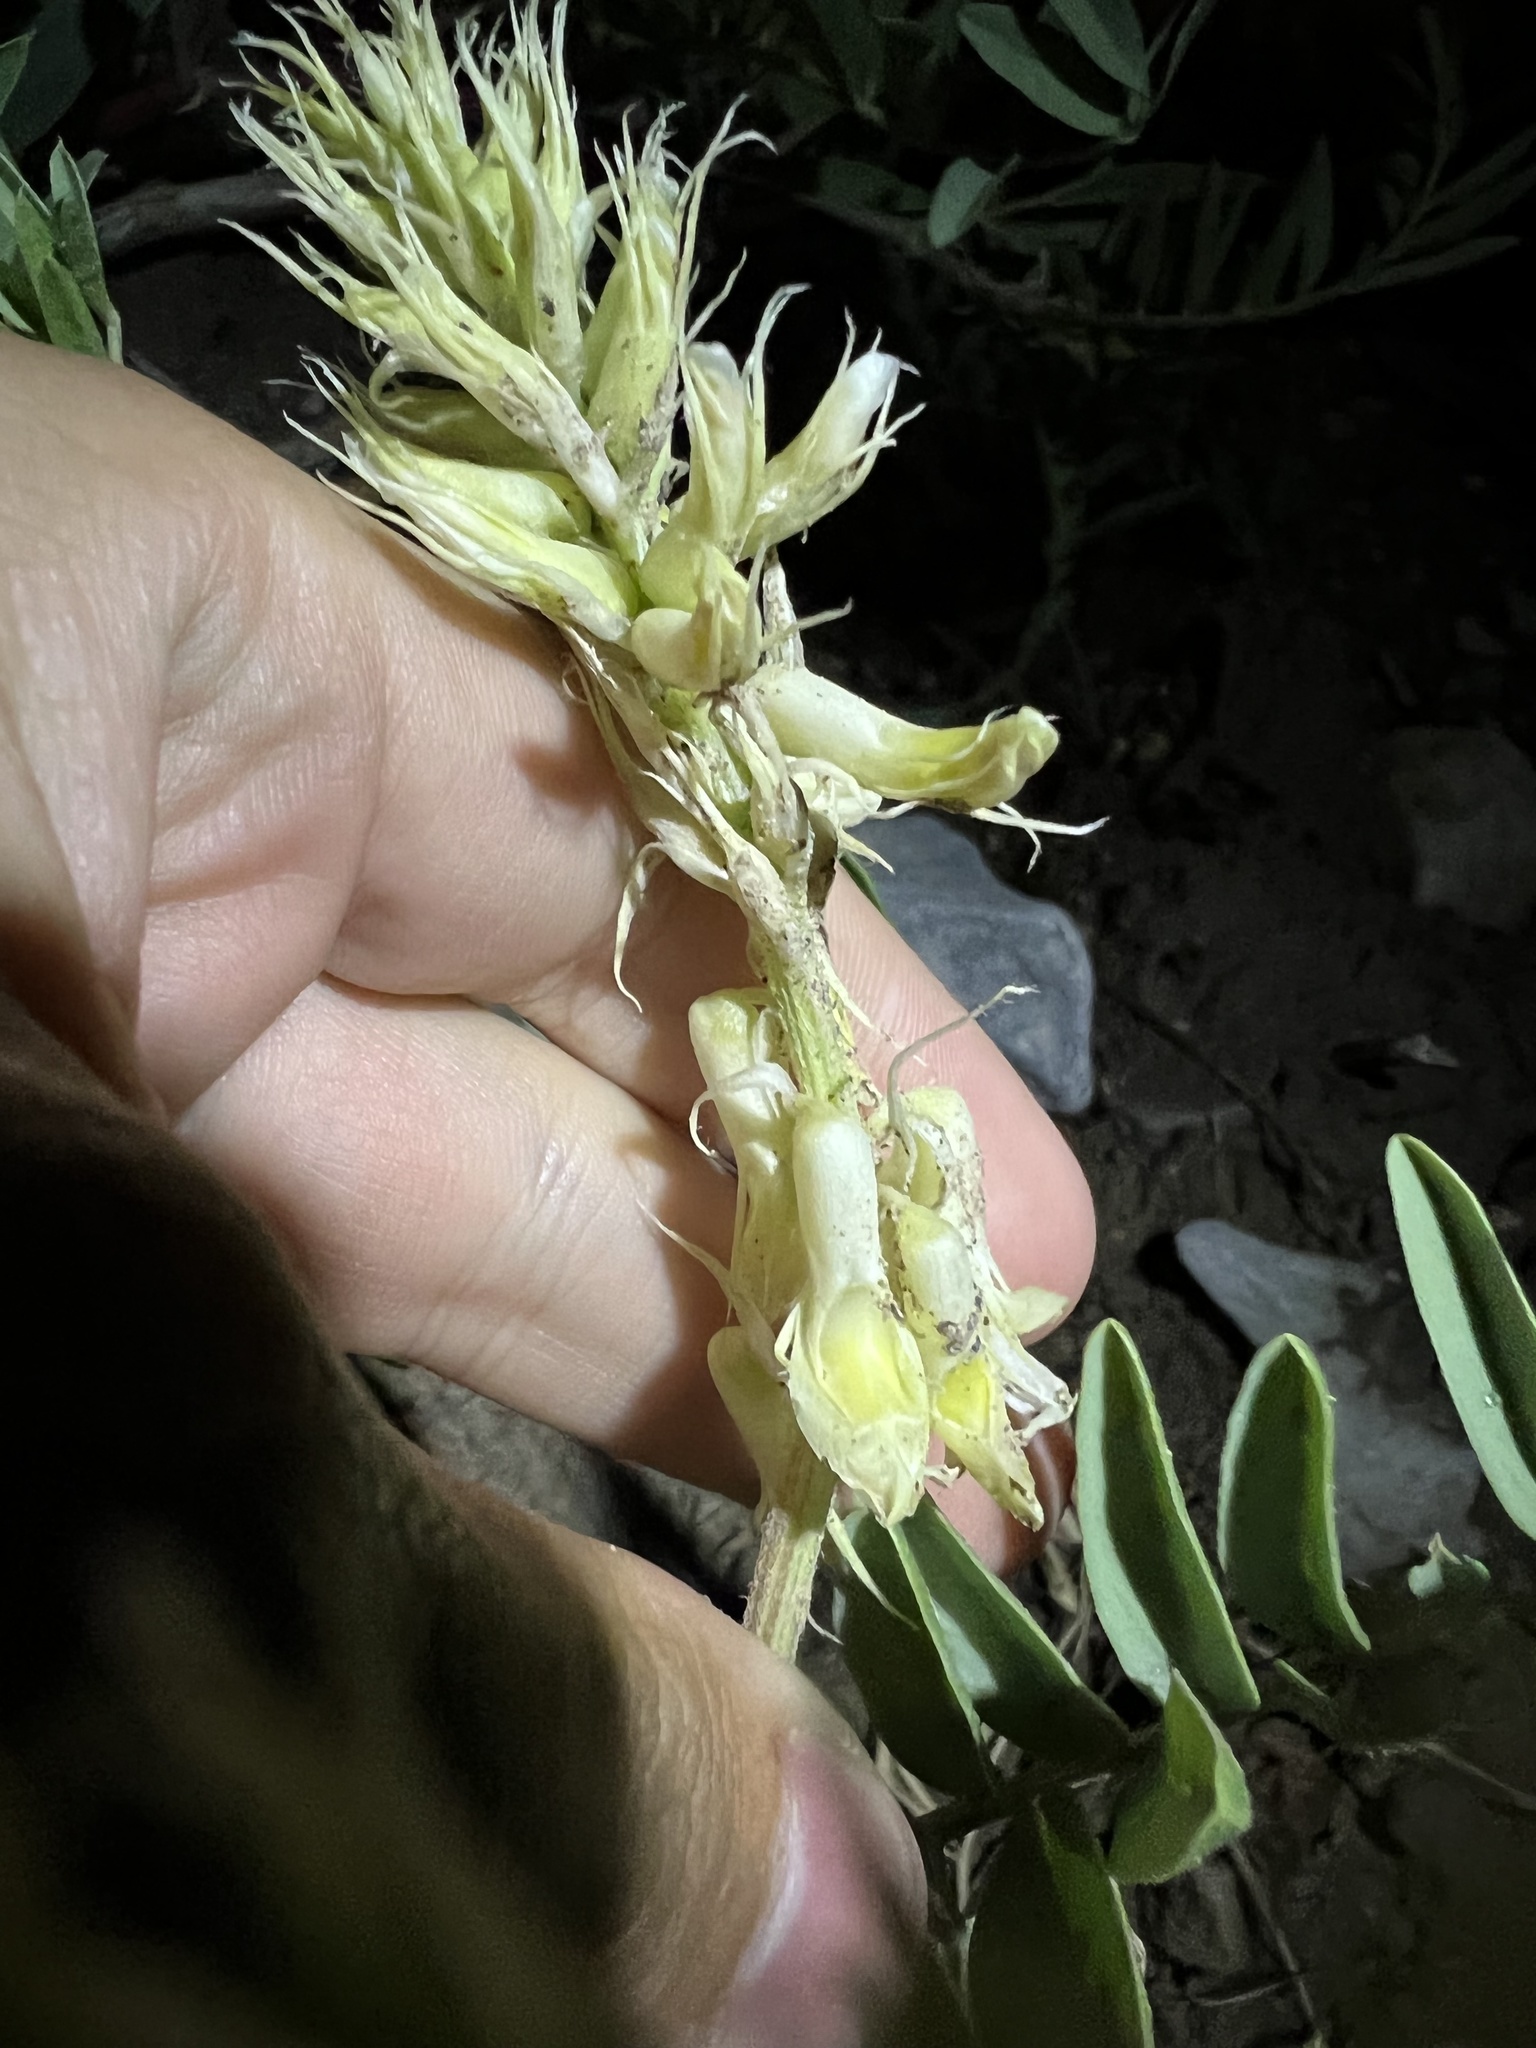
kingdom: Plantae
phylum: Tracheophyta
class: Magnoliopsida
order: Fabales
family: Fabaceae
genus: Astragalus
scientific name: Astragalus racemosus
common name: Alkali milk-vetch
